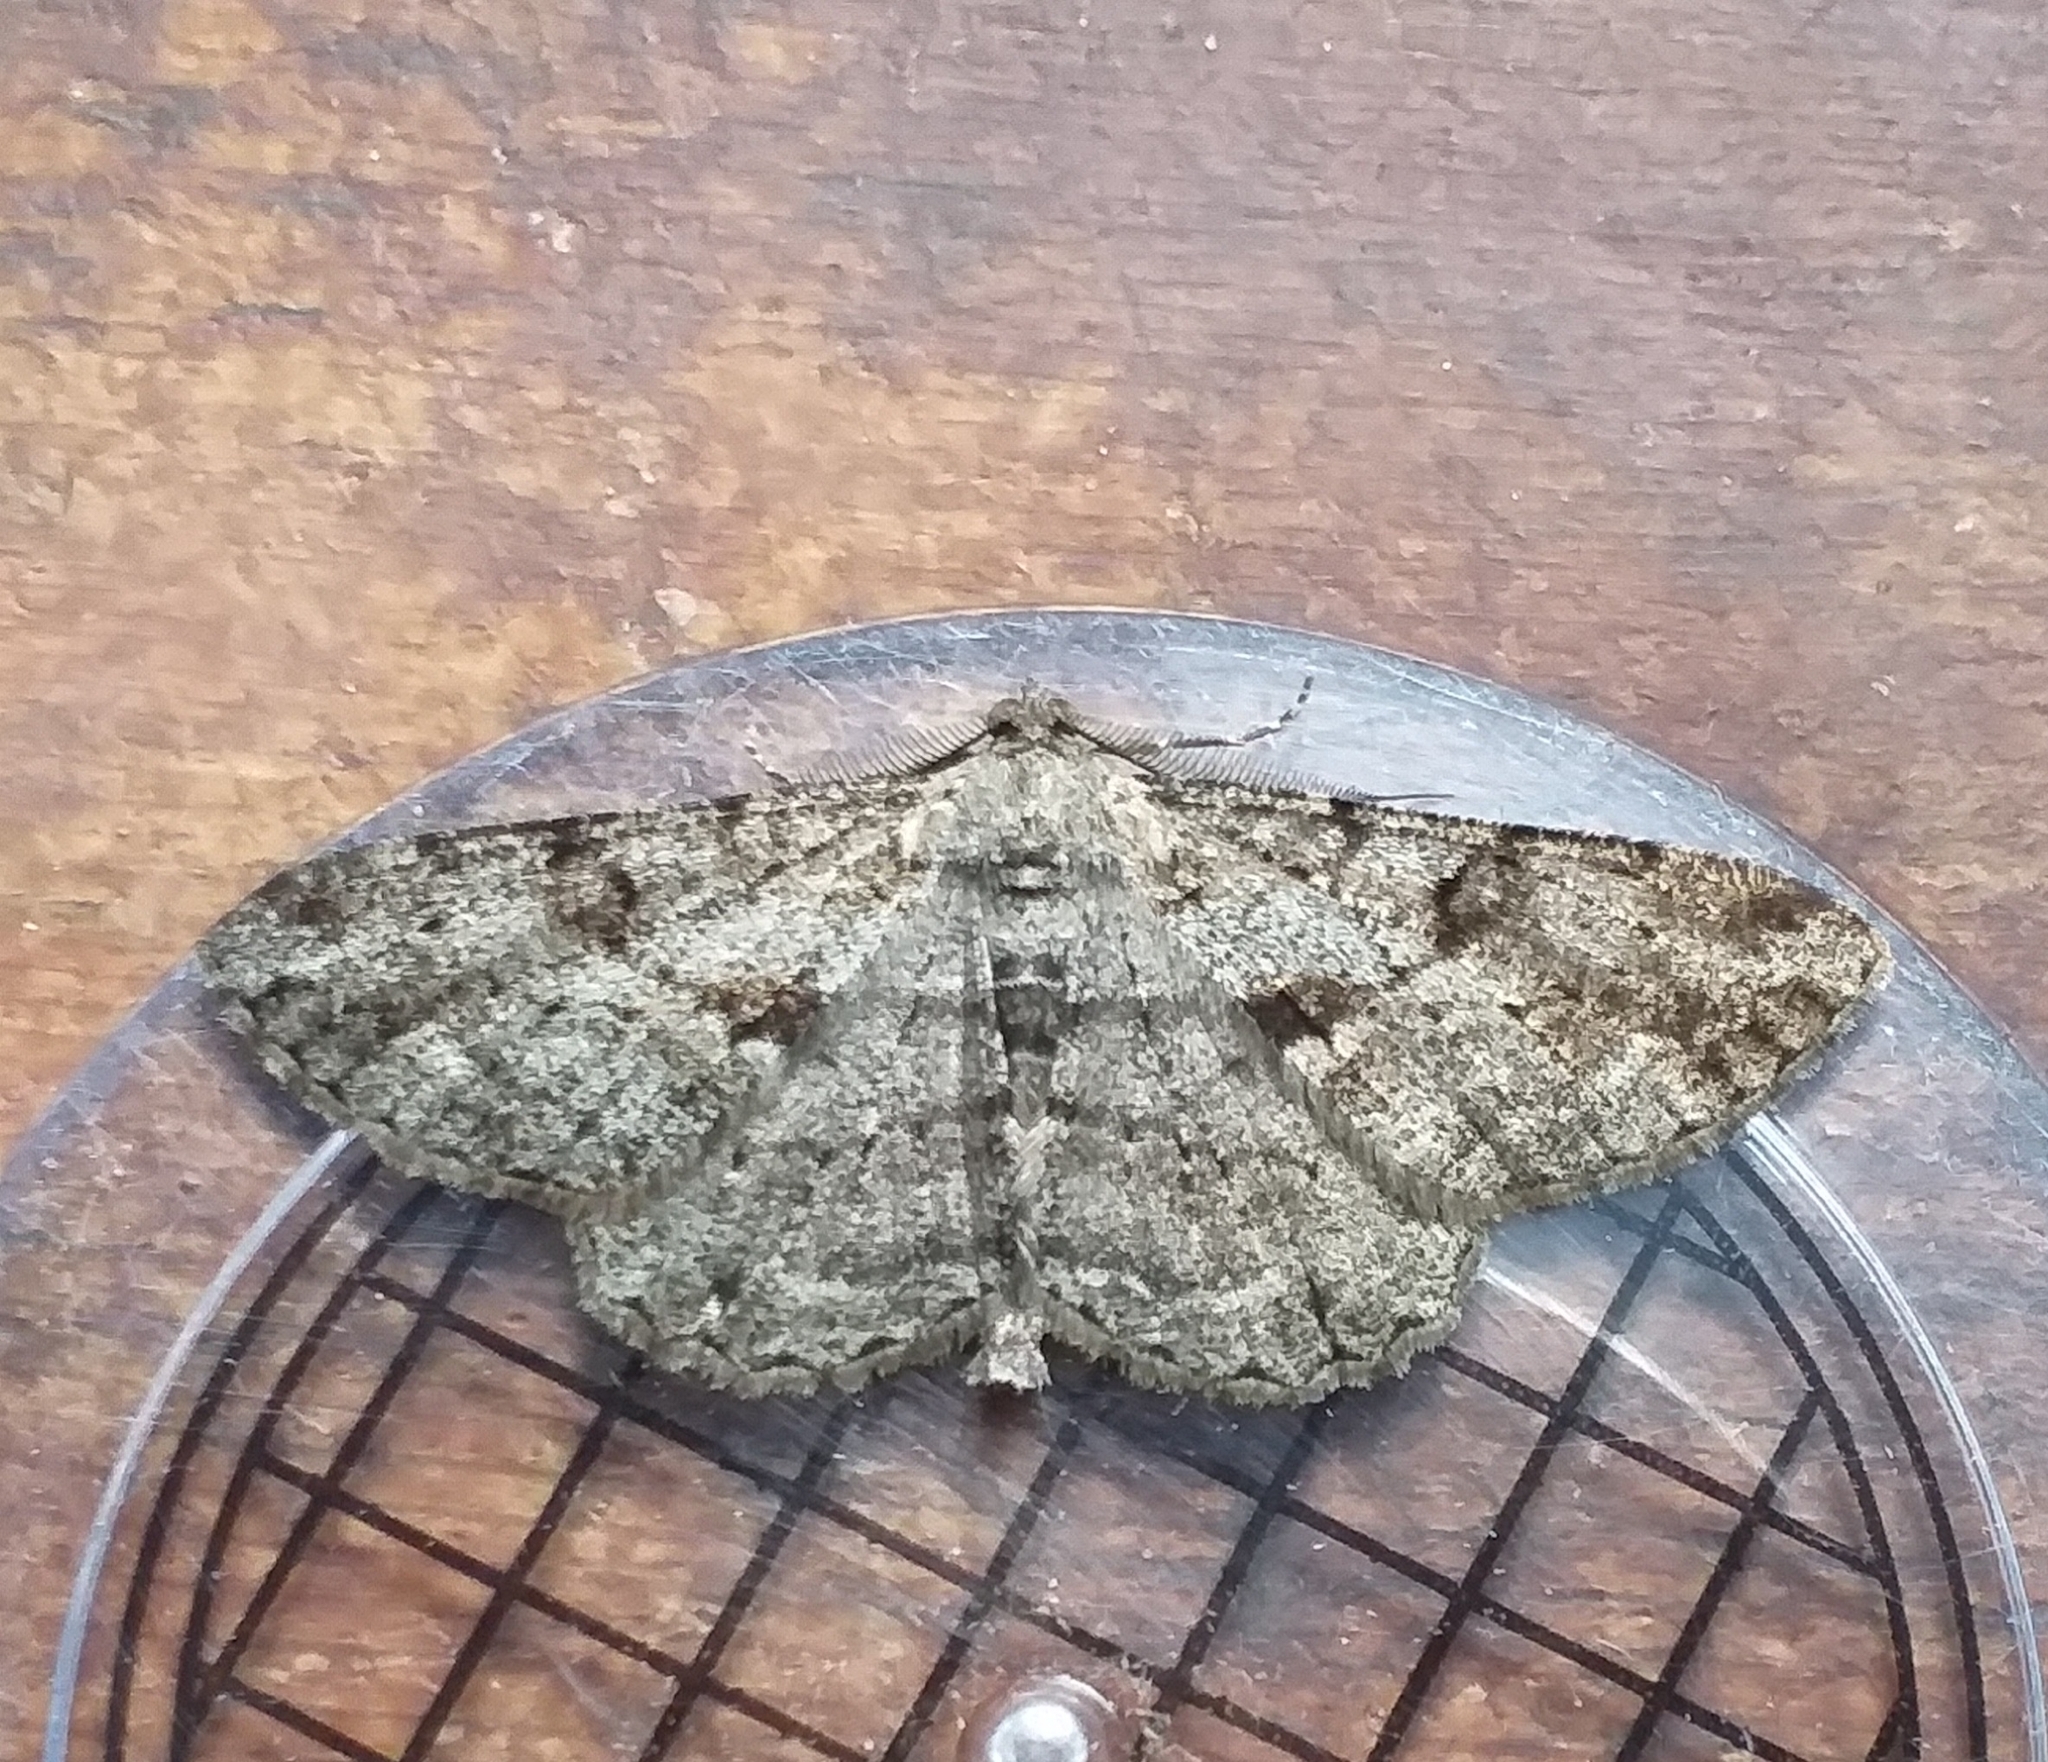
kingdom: Animalia
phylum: Arthropoda
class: Insecta
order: Lepidoptera
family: Geometridae
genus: Peribatodes
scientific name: Peribatodes rhomboidaria
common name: Willow beauty
